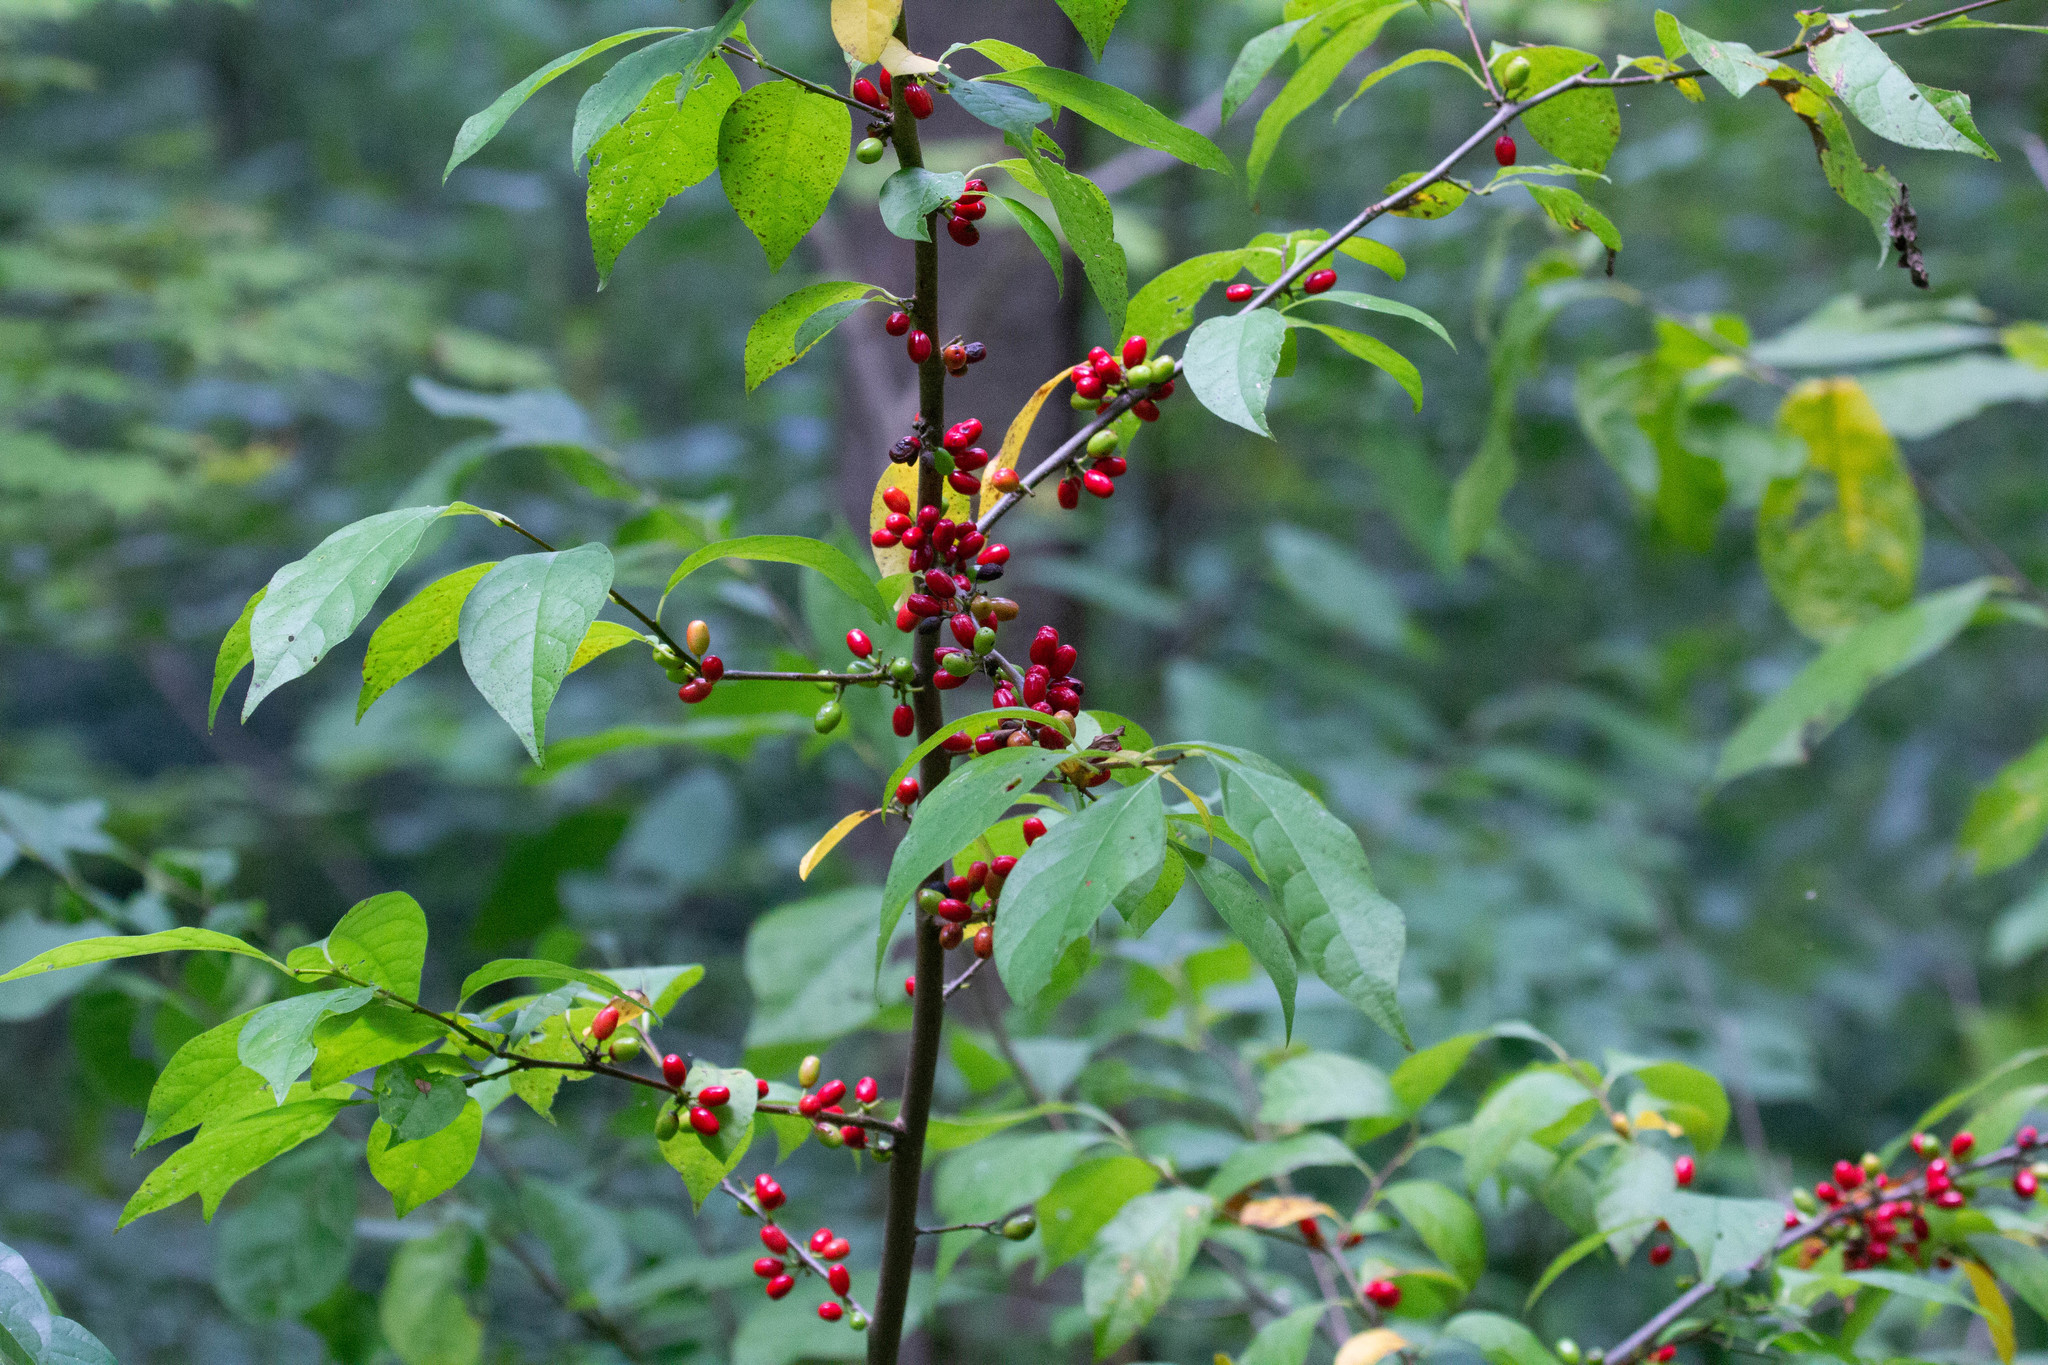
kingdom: Plantae
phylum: Tracheophyta
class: Magnoliopsida
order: Laurales
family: Lauraceae
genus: Lindera
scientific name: Lindera benzoin
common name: Spicebush
